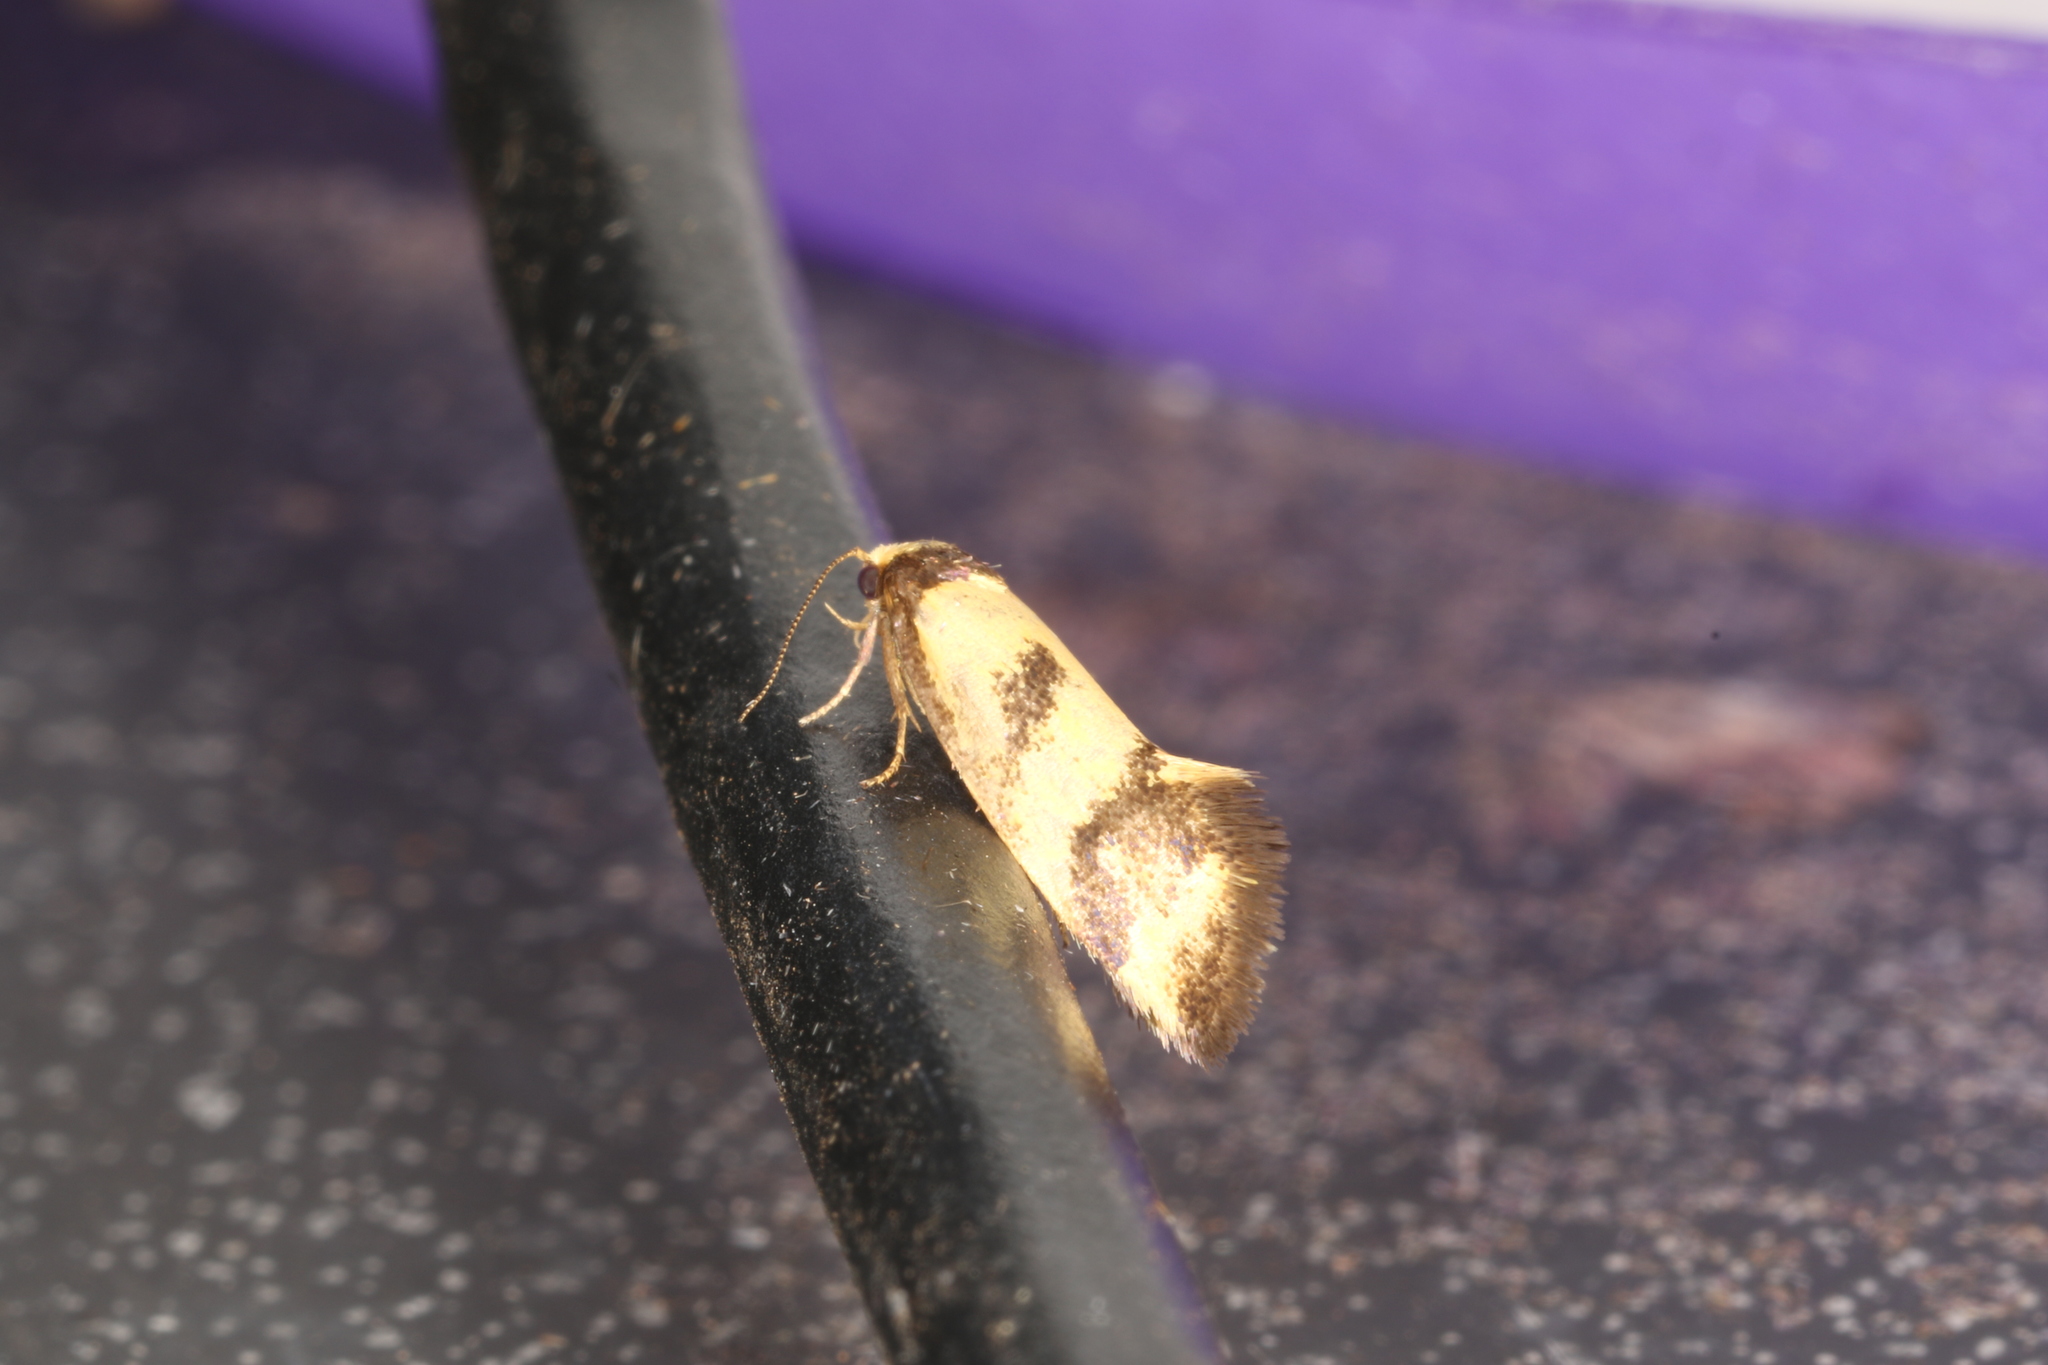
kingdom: Animalia
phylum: Arthropoda
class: Insecta
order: Lepidoptera
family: Oecophoridae
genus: Olbonoma
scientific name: Olbonoma triptycha
